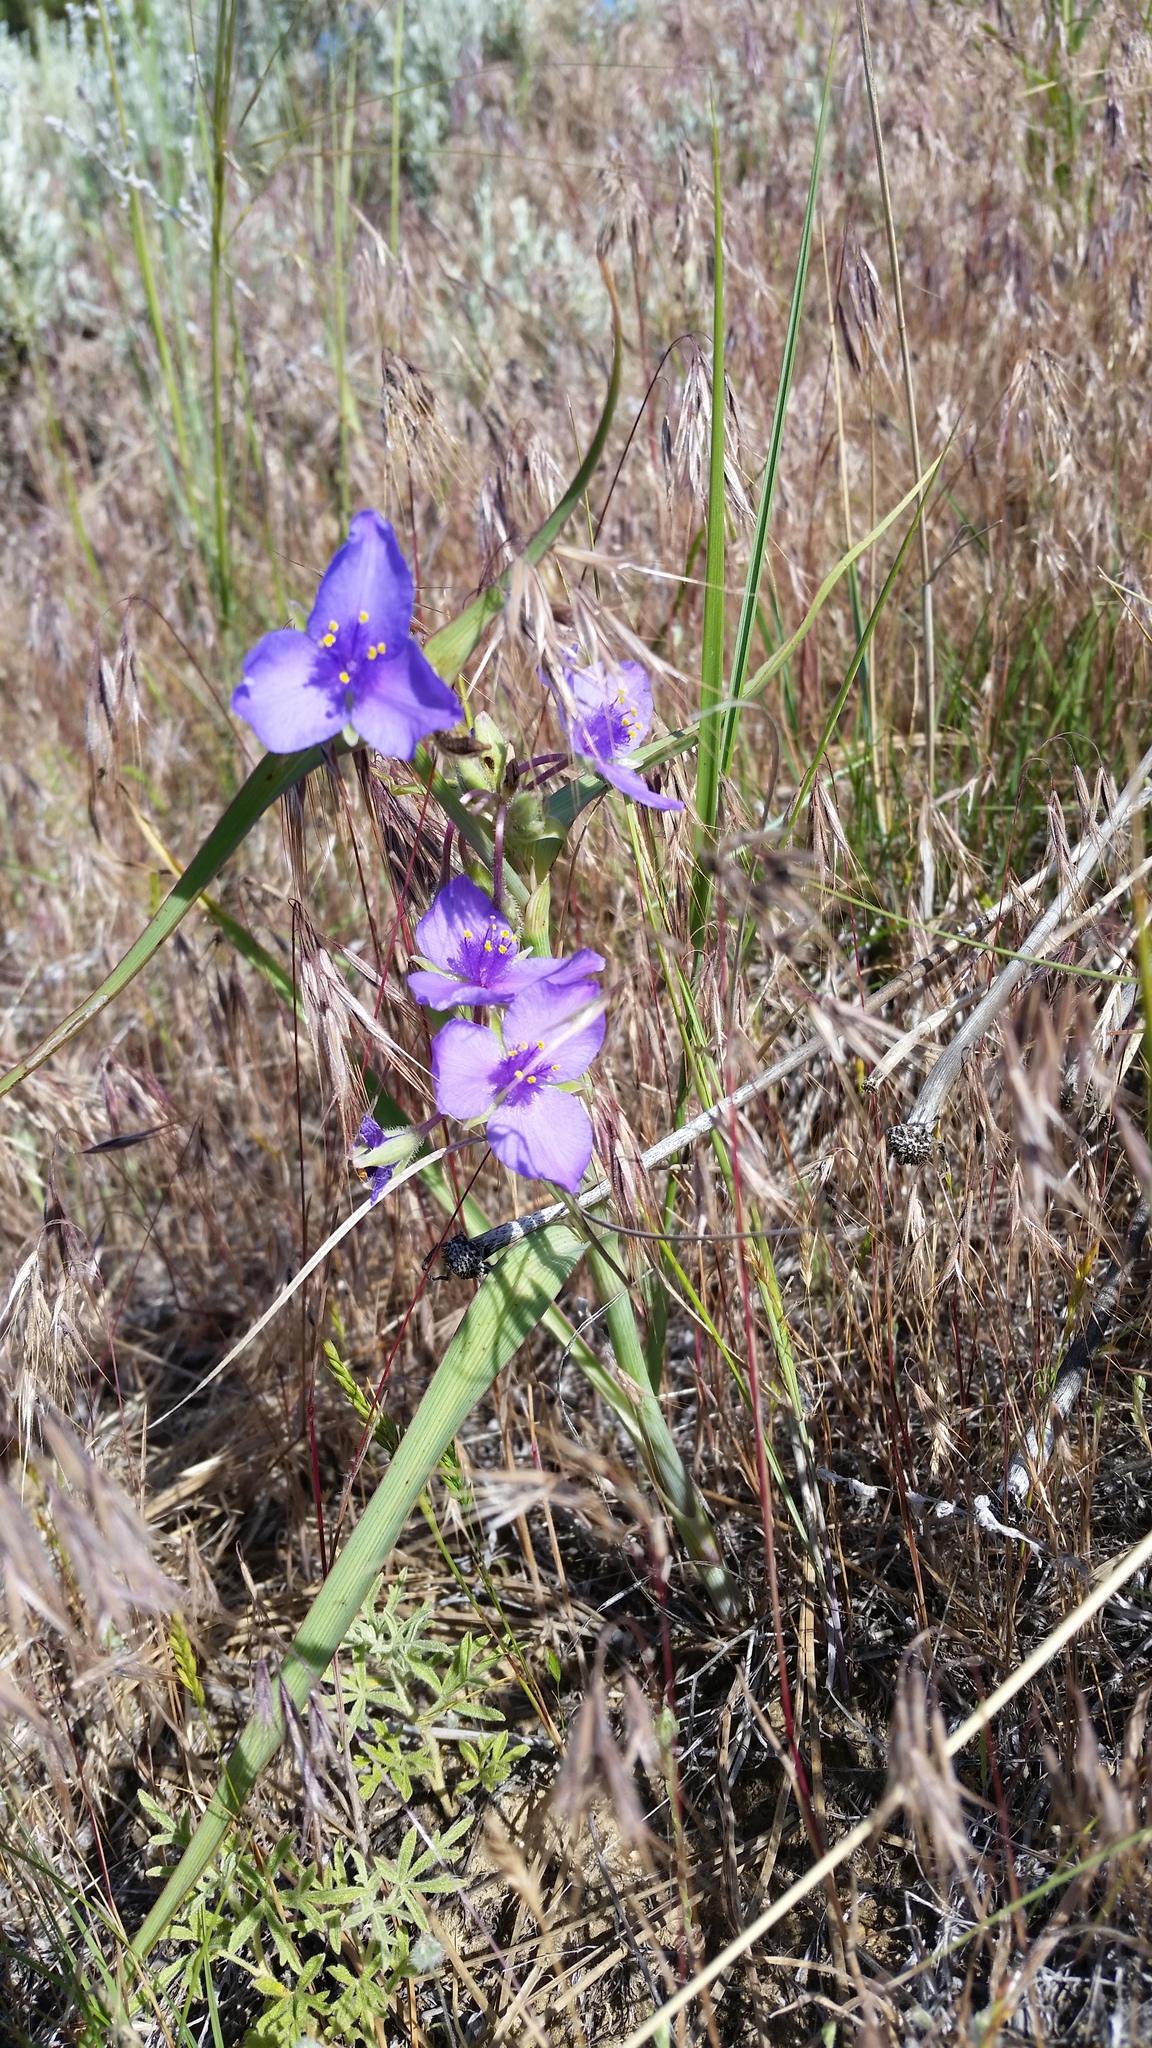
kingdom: Plantae
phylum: Tracheophyta
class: Liliopsida
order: Commelinales
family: Commelinaceae
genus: Tradescantia
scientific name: Tradescantia occidentalis
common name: Prairie spiderwort
